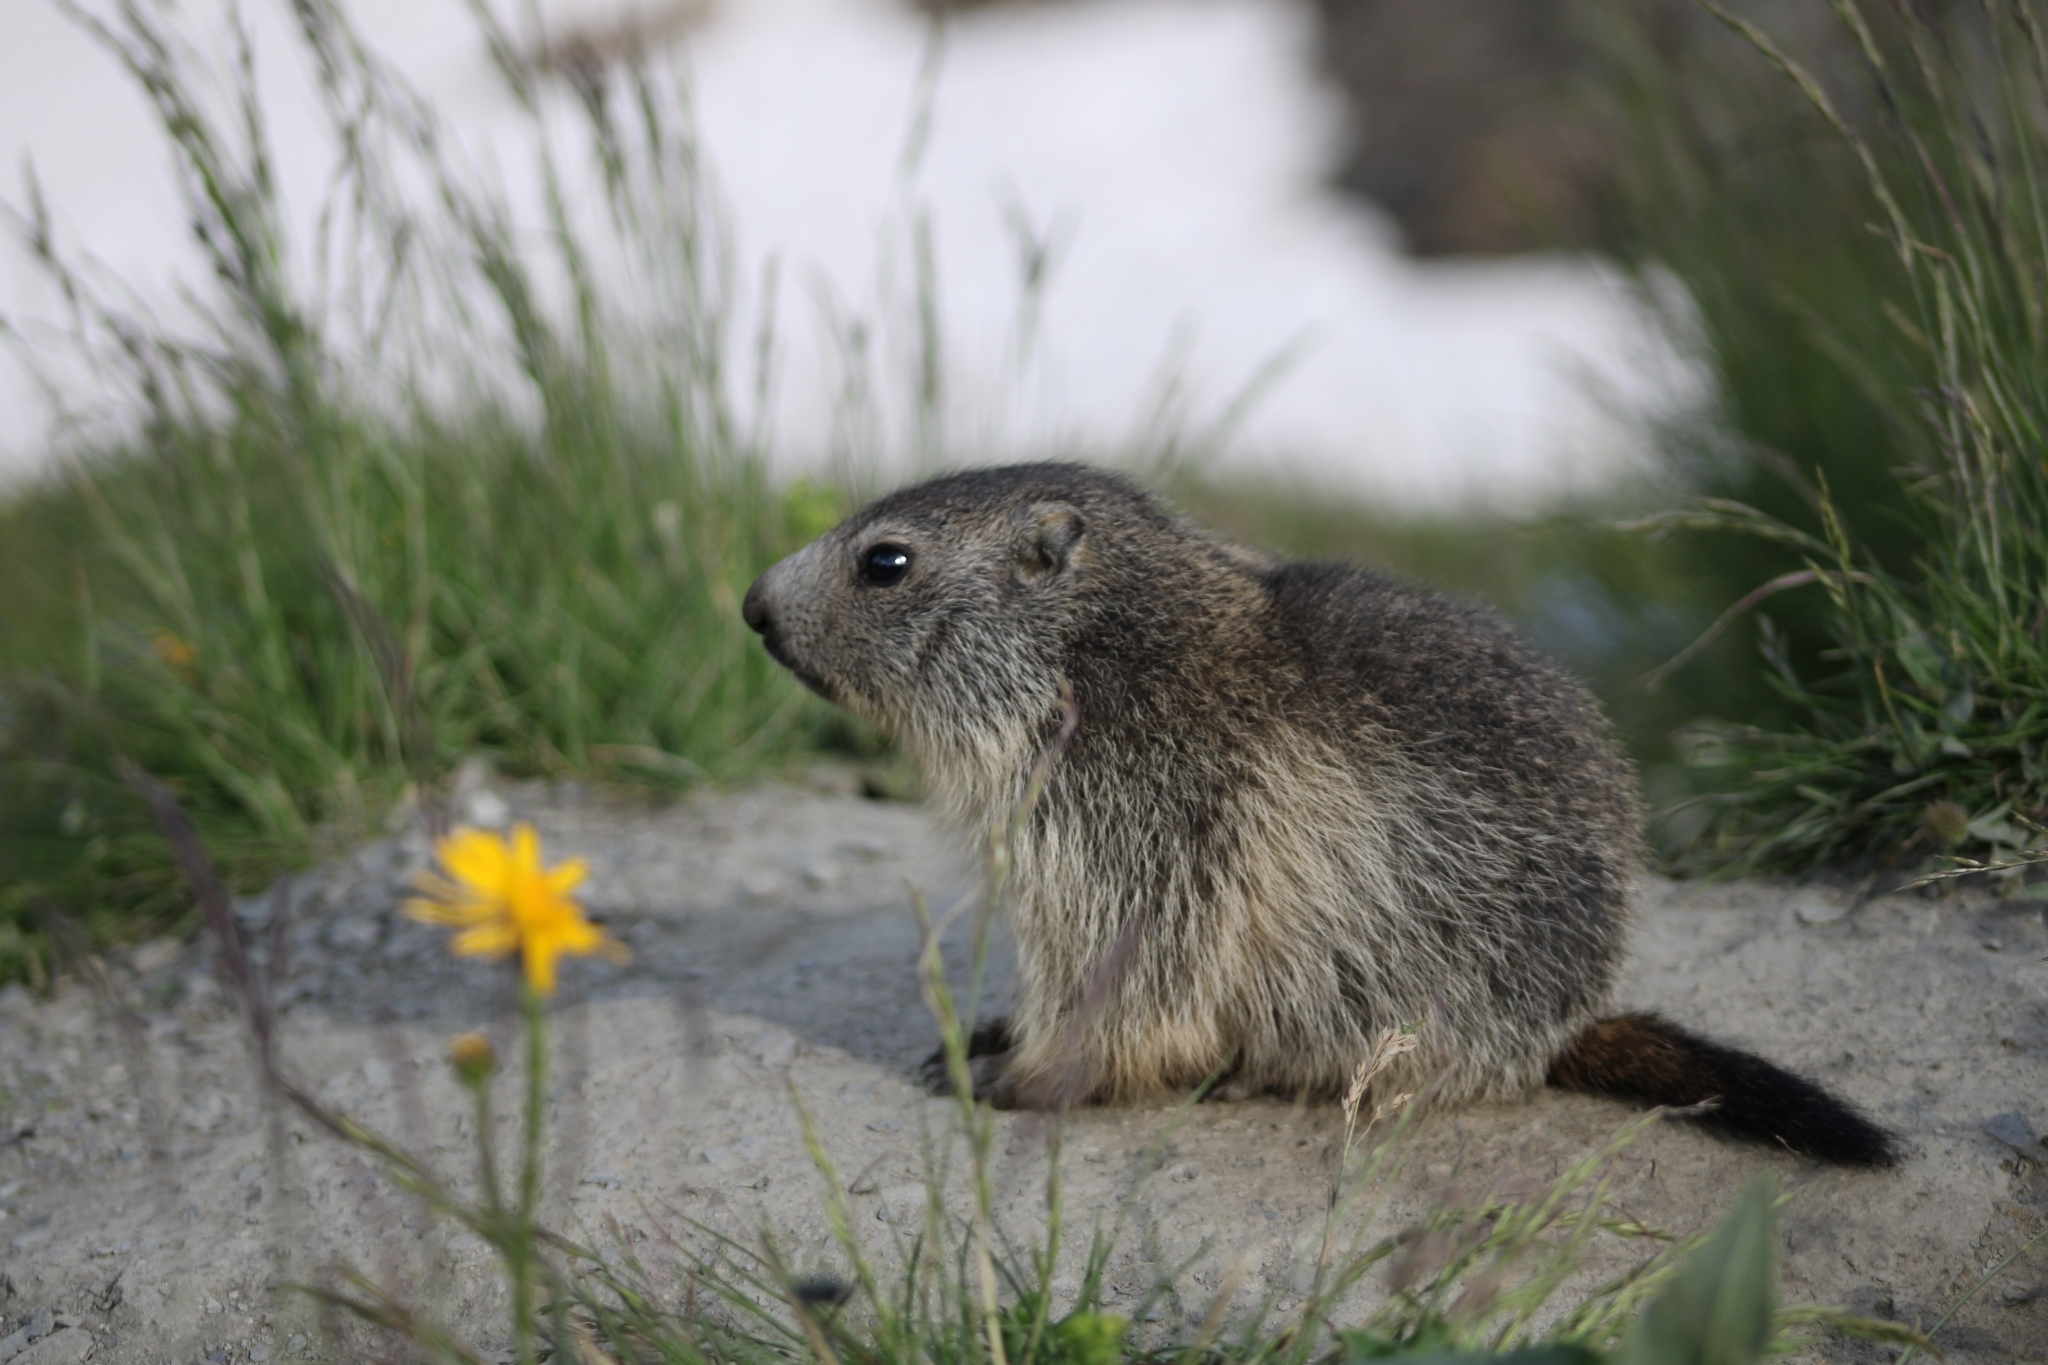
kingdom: Animalia
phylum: Chordata
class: Mammalia
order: Rodentia
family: Sciuridae
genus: Marmota
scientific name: Marmota marmota
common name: Alpine marmot
